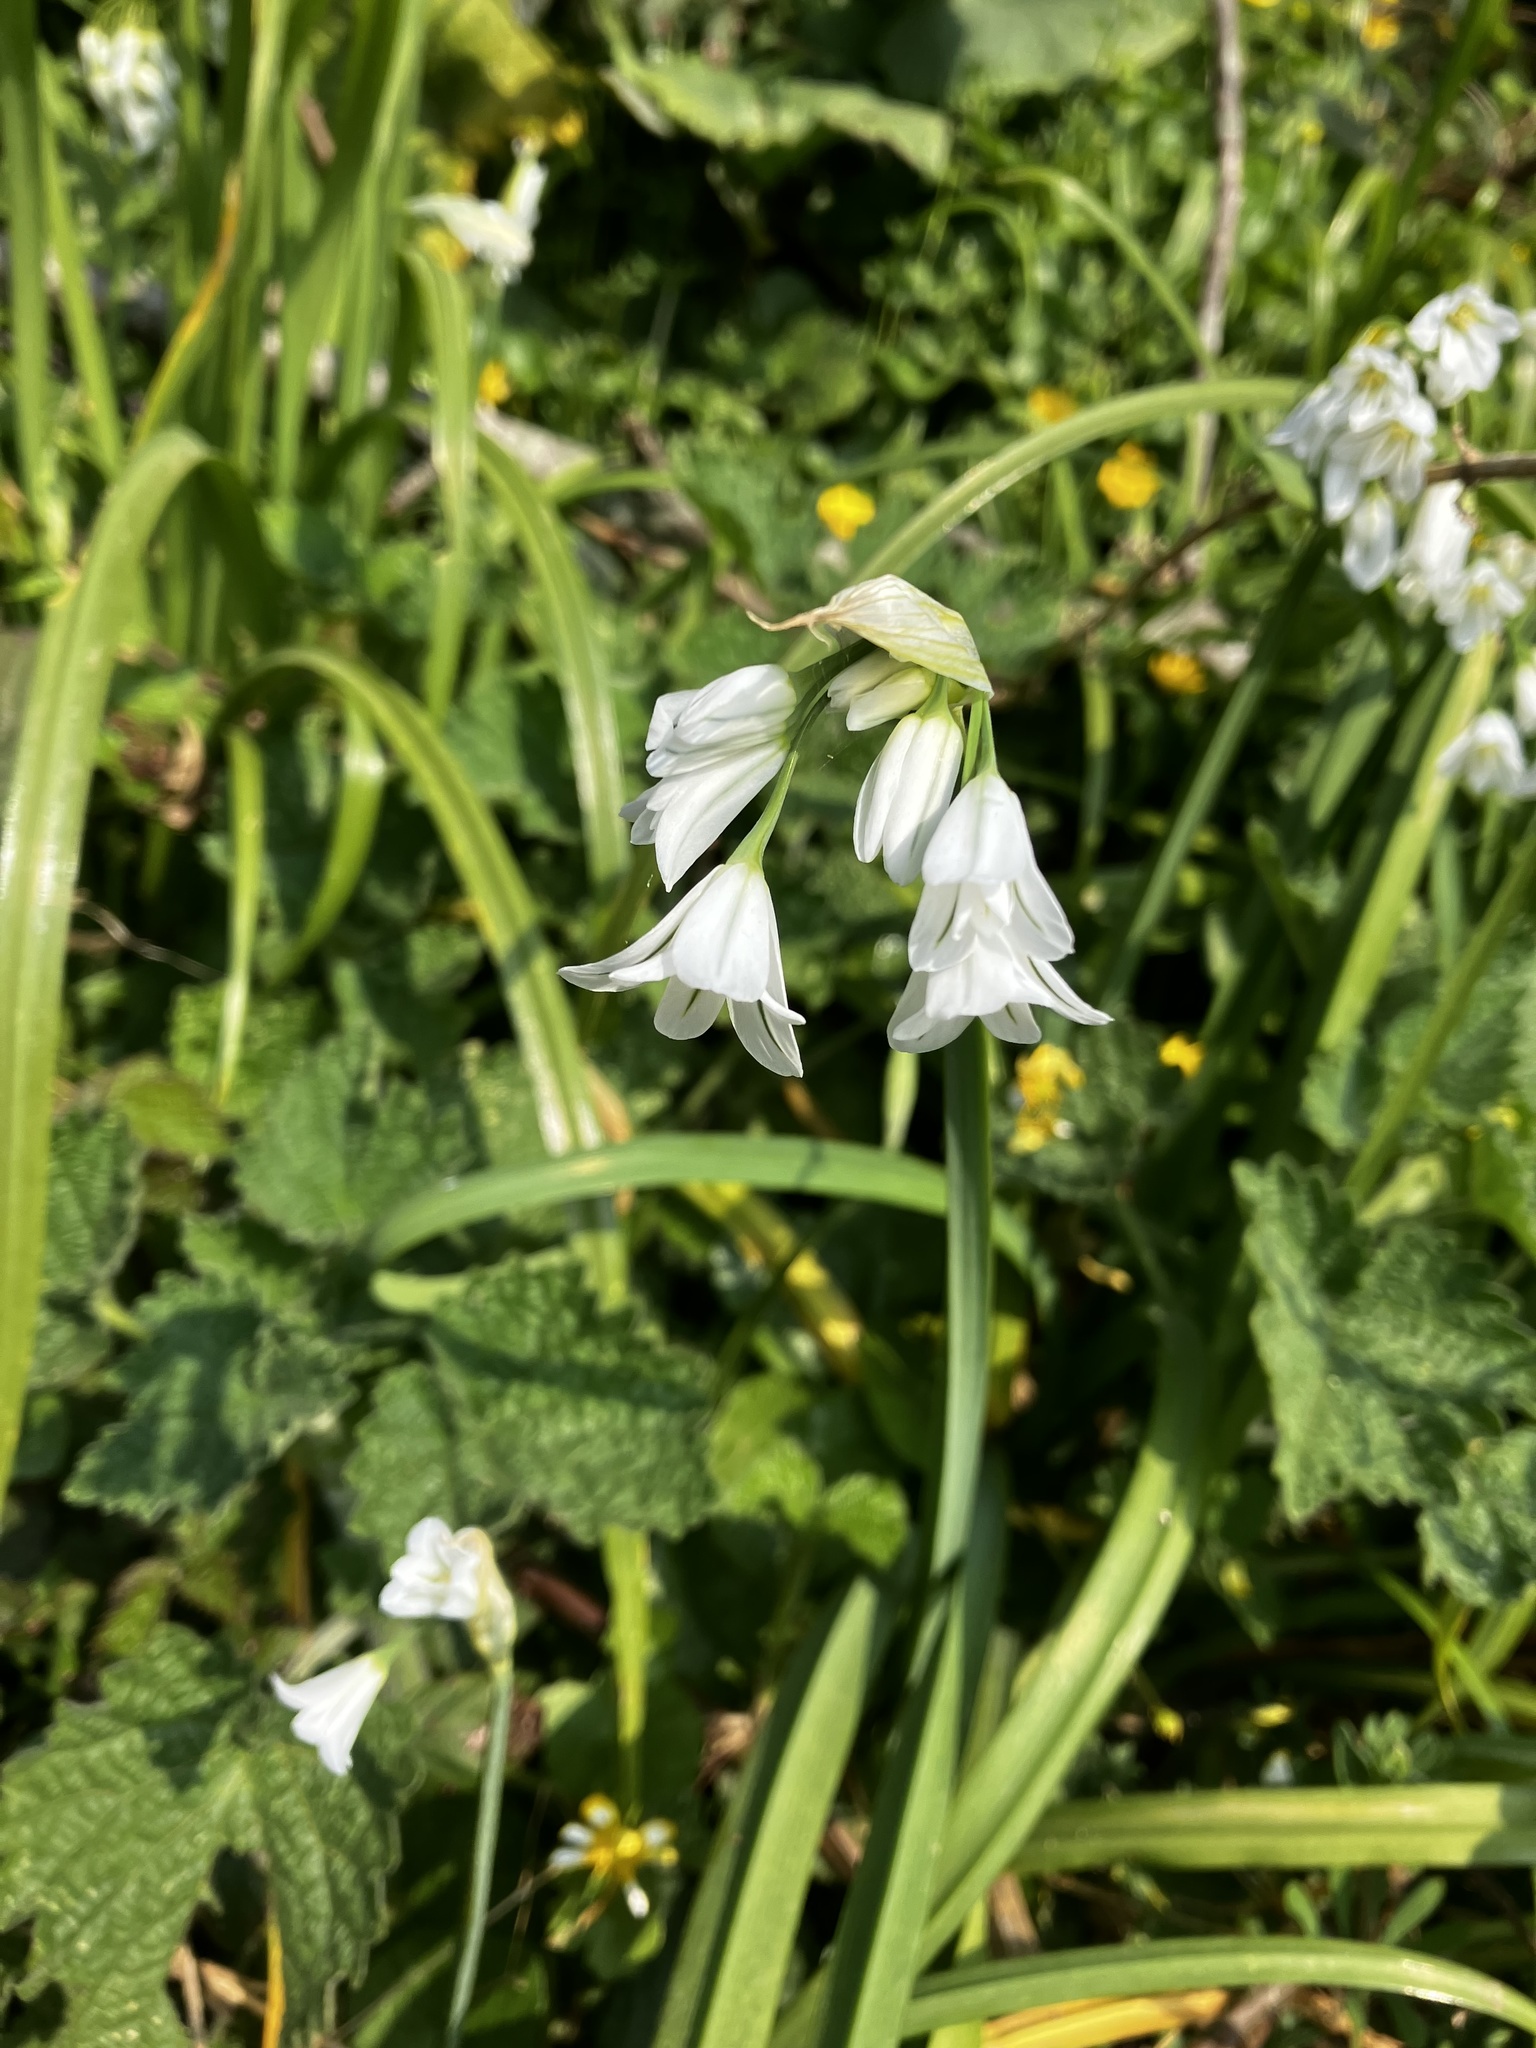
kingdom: Plantae
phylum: Tracheophyta
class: Liliopsida
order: Asparagales
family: Amaryllidaceae
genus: Allium
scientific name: Allium triquetrum
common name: Three-cornered garlic
